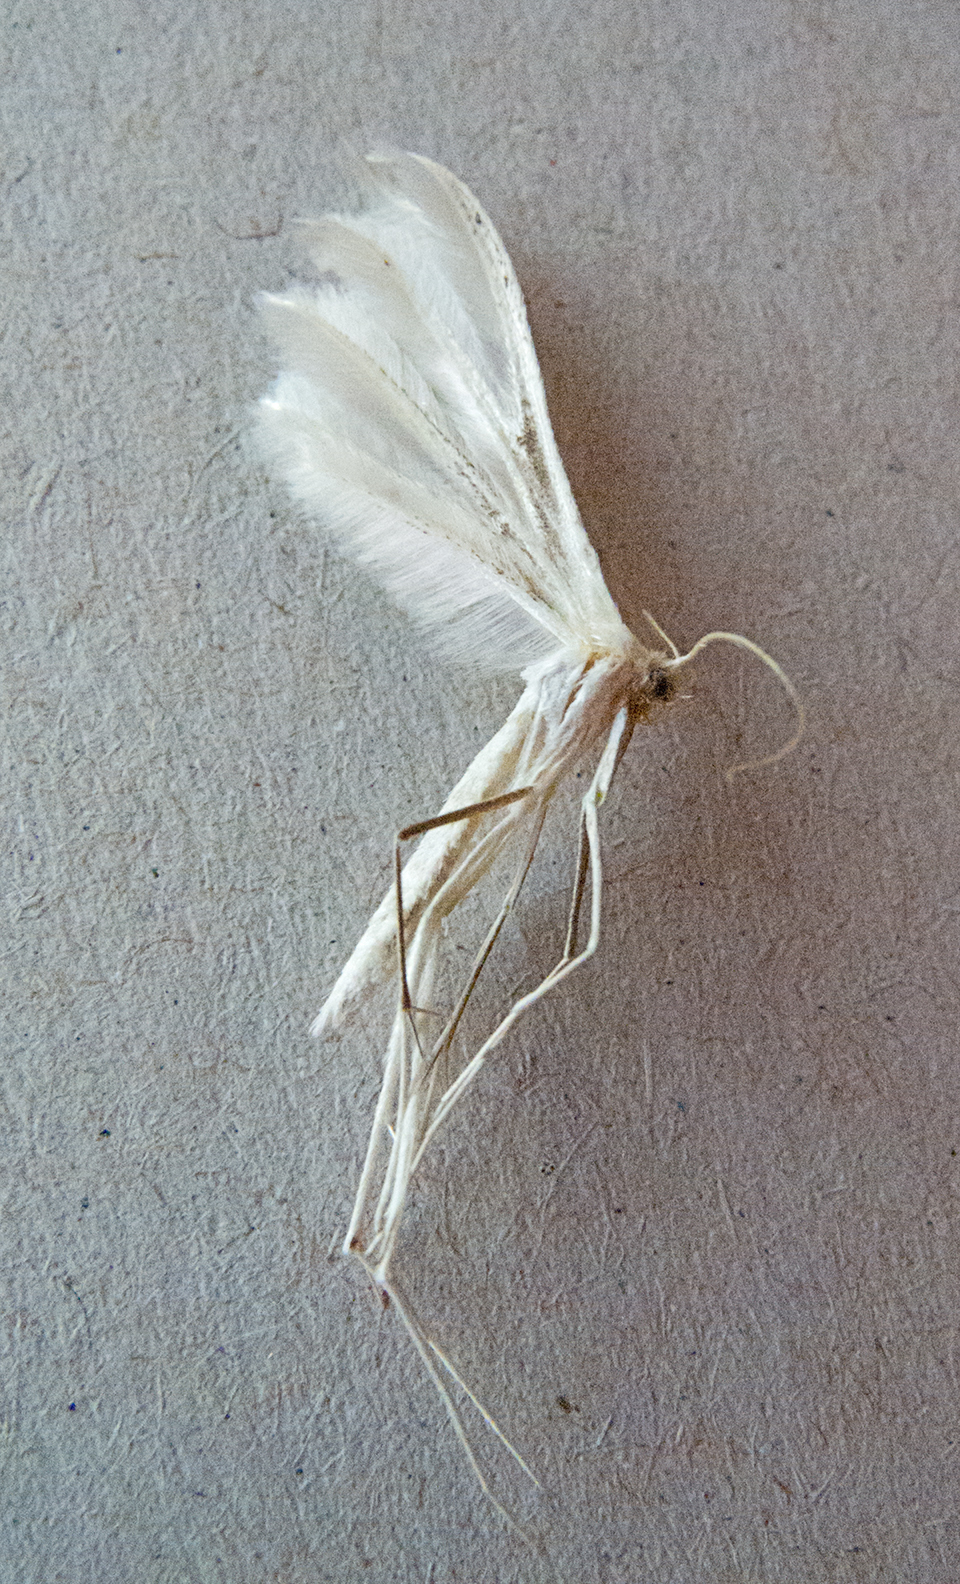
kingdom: Animalia
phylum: Arthropoda
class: Insecta
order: Lepidoptera
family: Pterophoridae
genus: Pterophorus
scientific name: Pterophorus pentadactyla
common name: White plume moth
